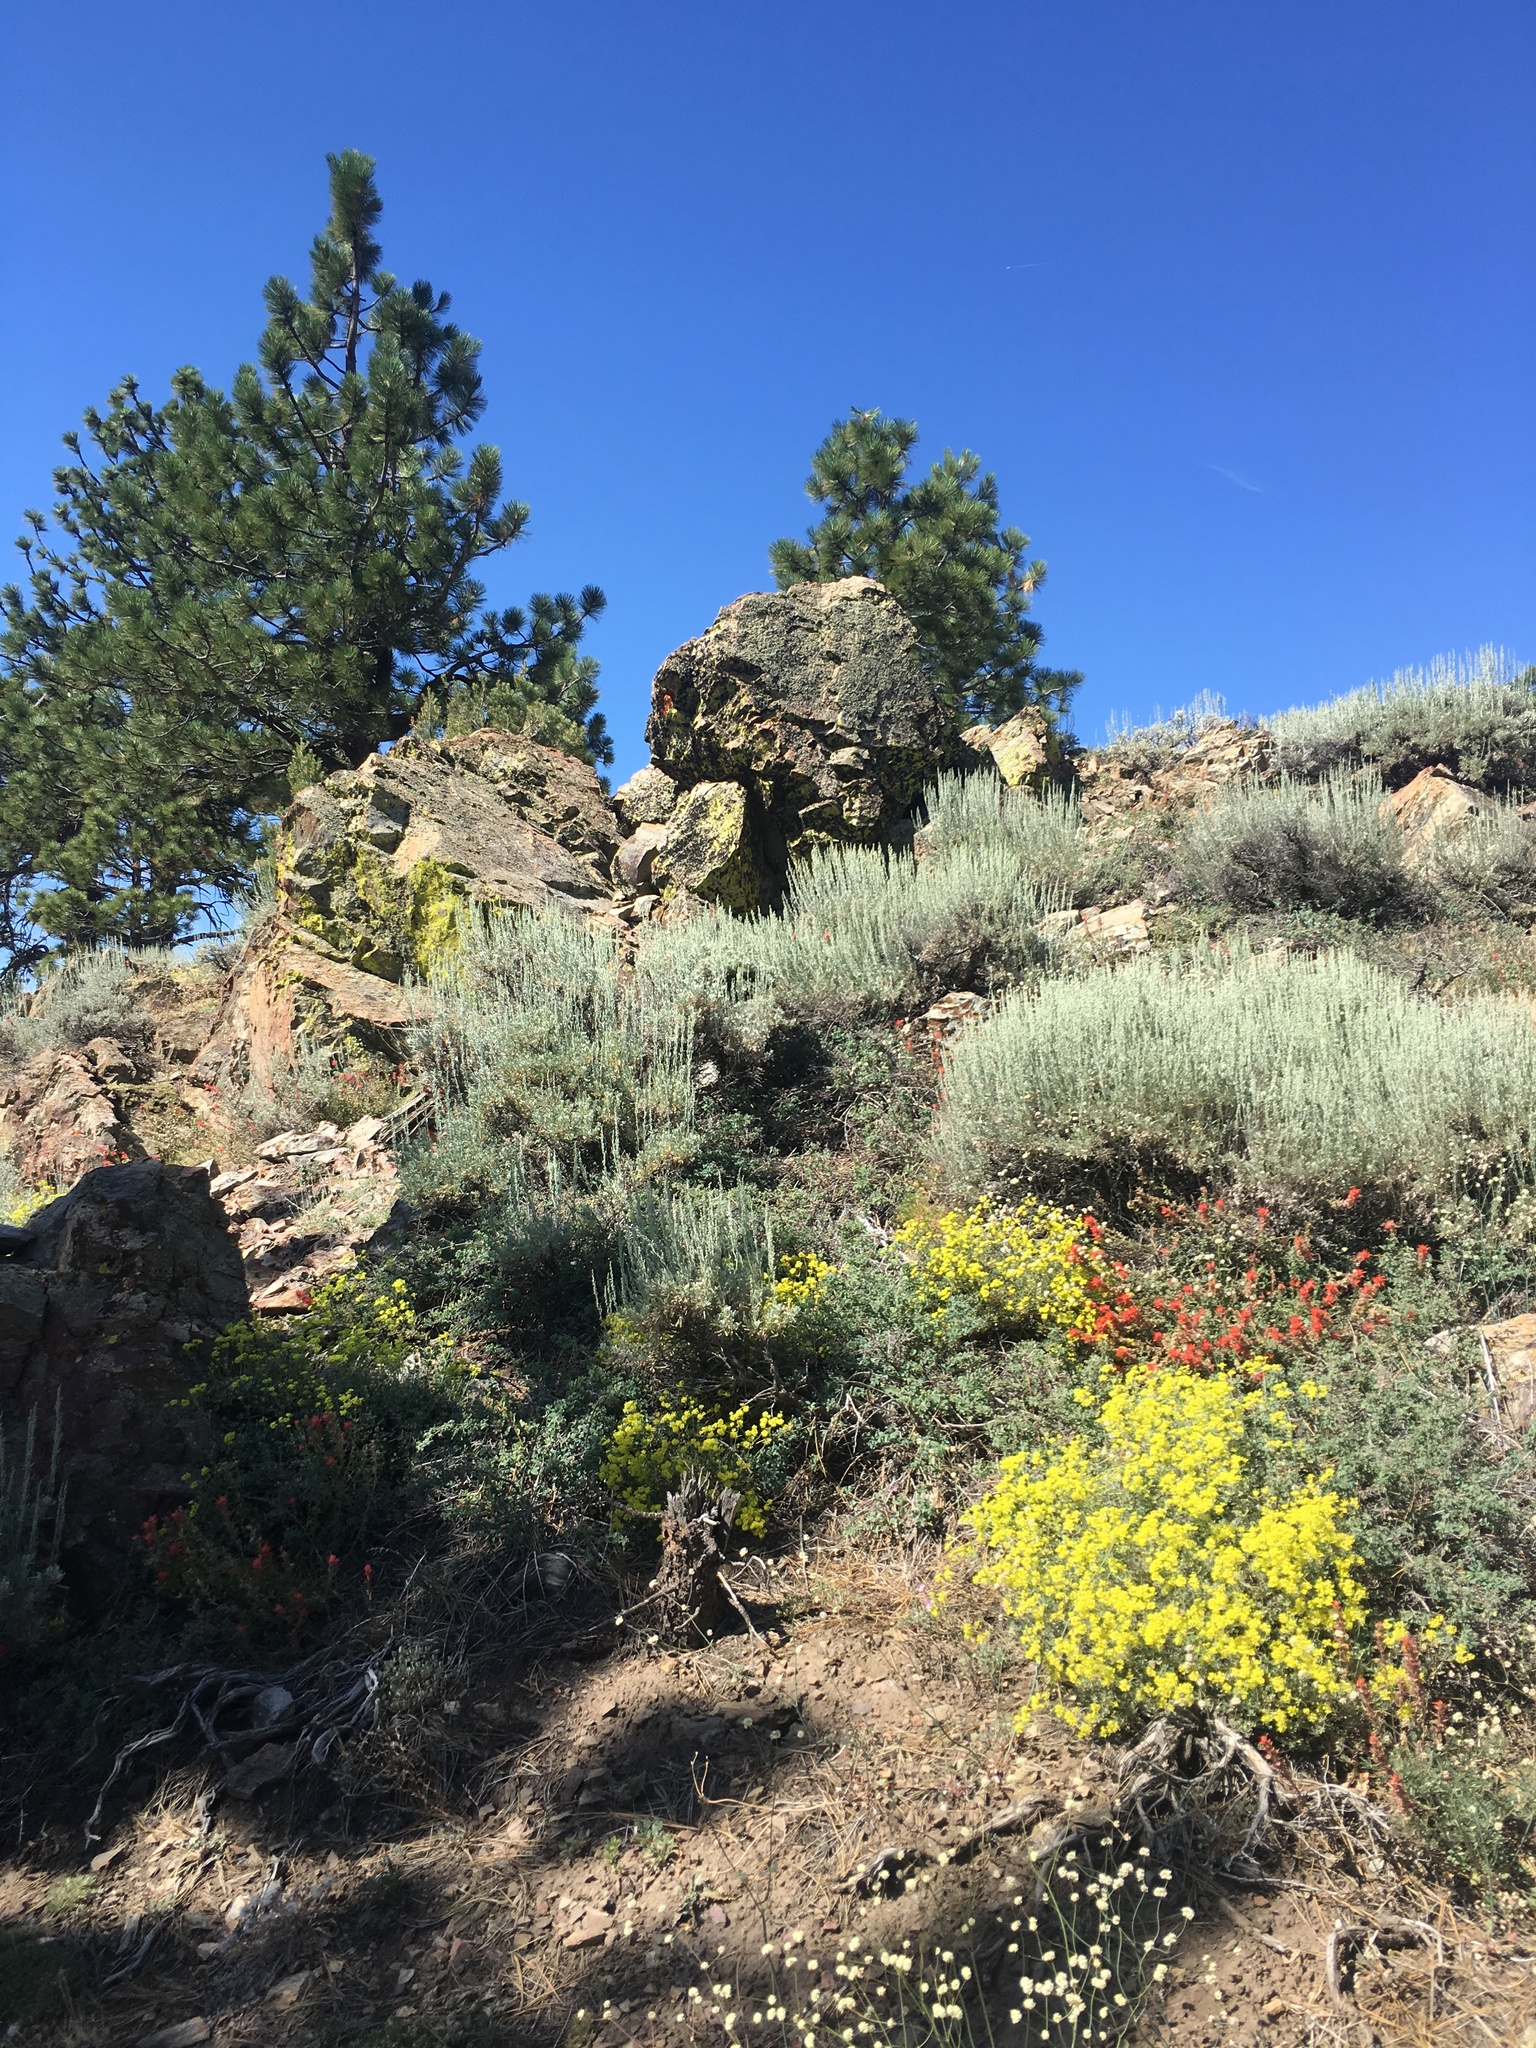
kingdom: Plantae
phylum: Tracheophyta
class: Magnoliopsida
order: Caryophyllales
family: Polygonaceae
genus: Eriogonum
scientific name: Eriogonum umbellatum
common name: Sulfur-buckwheat
